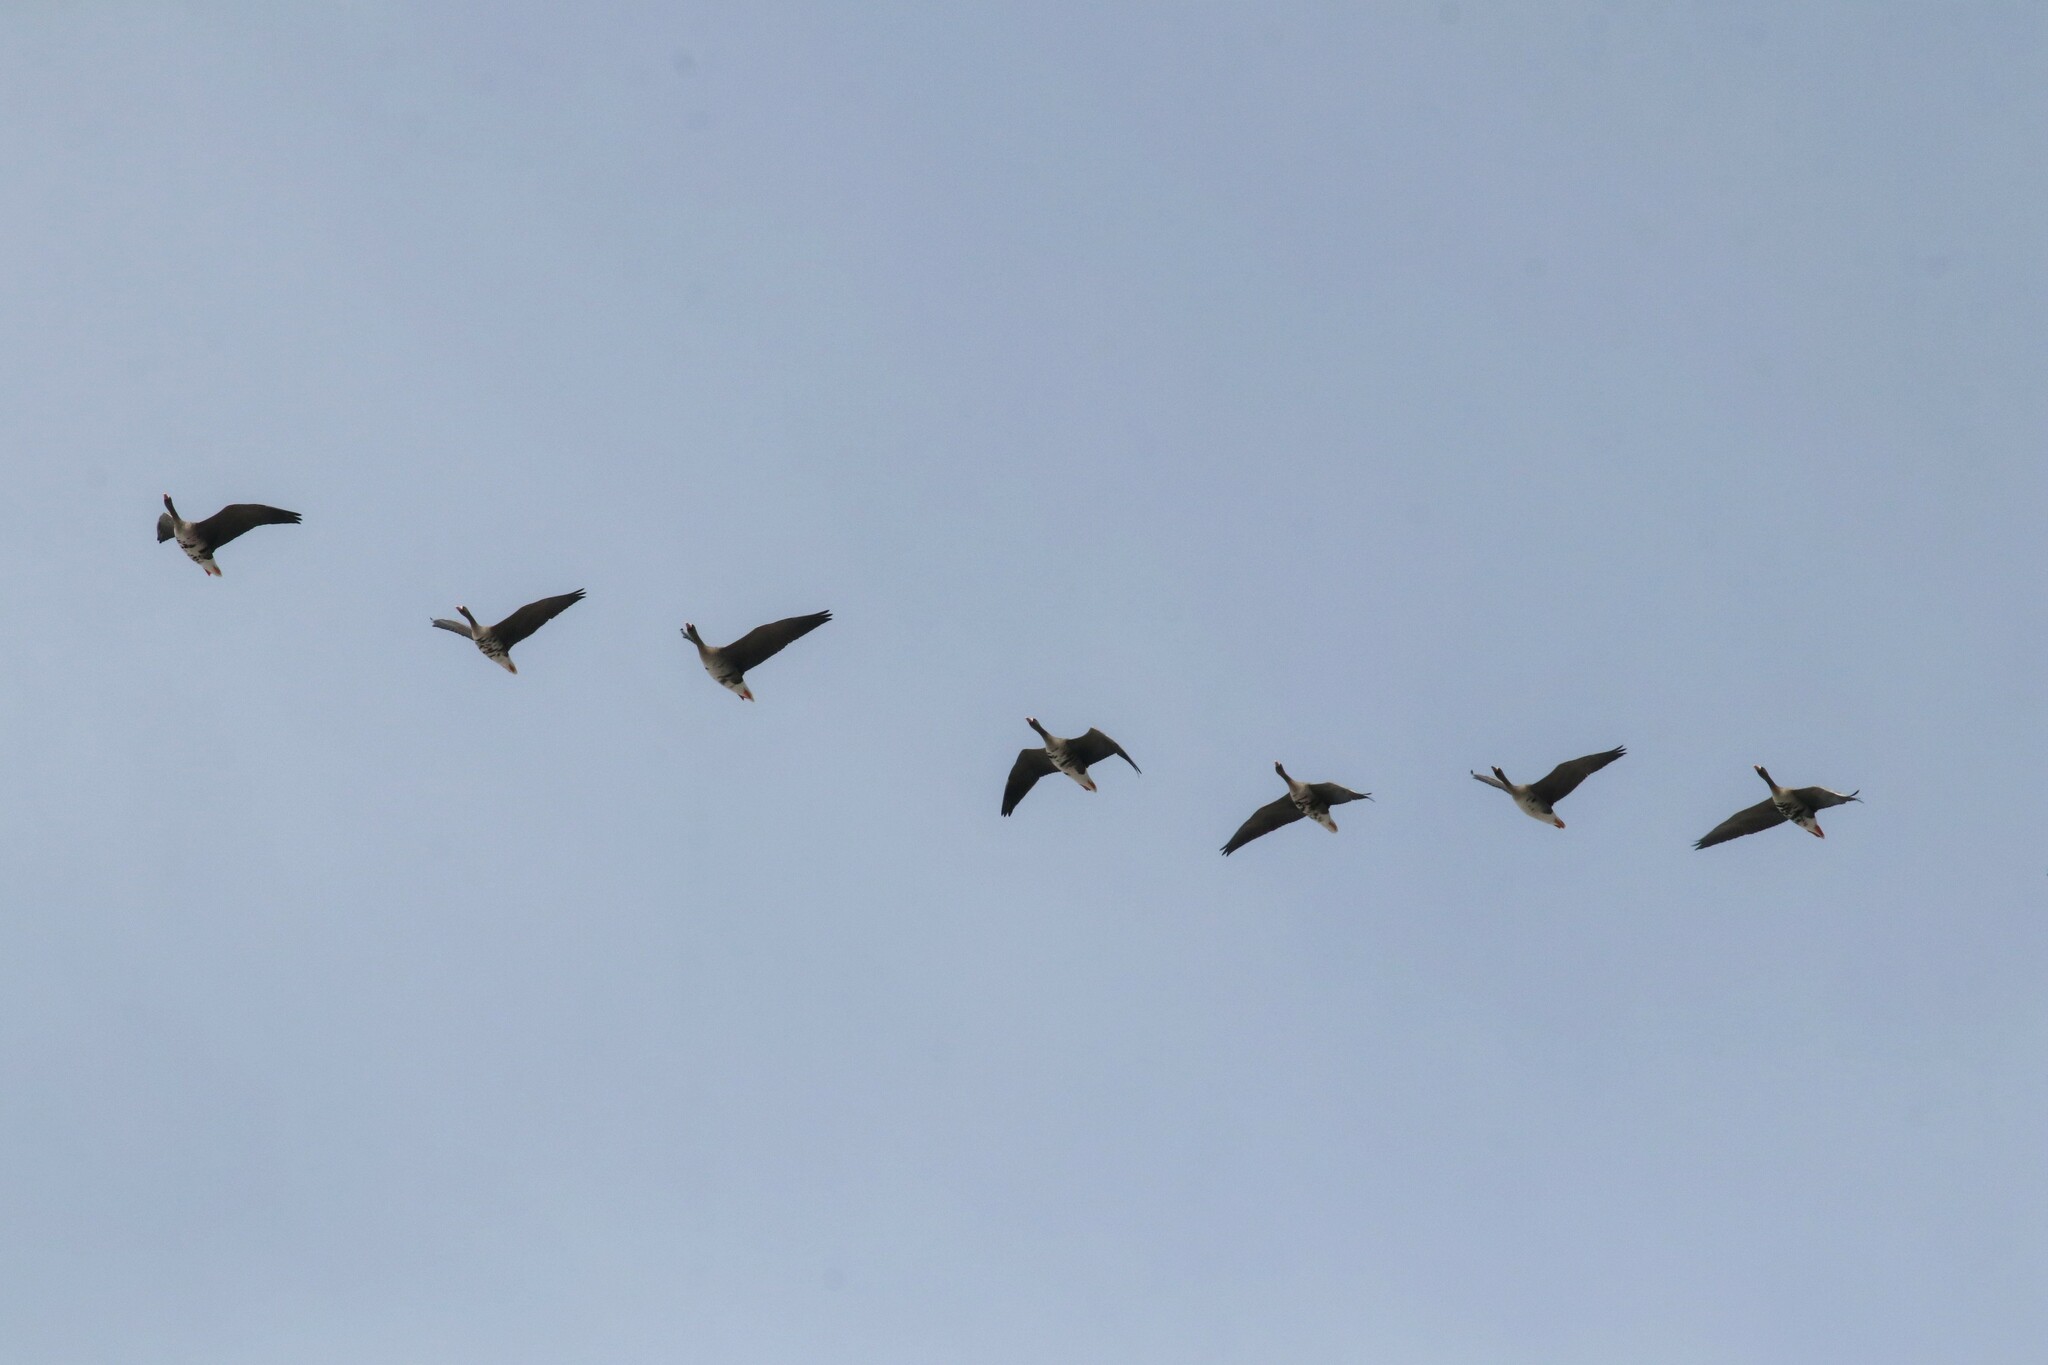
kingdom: Animalia
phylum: Chordata
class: Aves
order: Anseriformes
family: Anatidae
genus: Anser
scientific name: Anser albifrons
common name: Greater white-fronted goose
